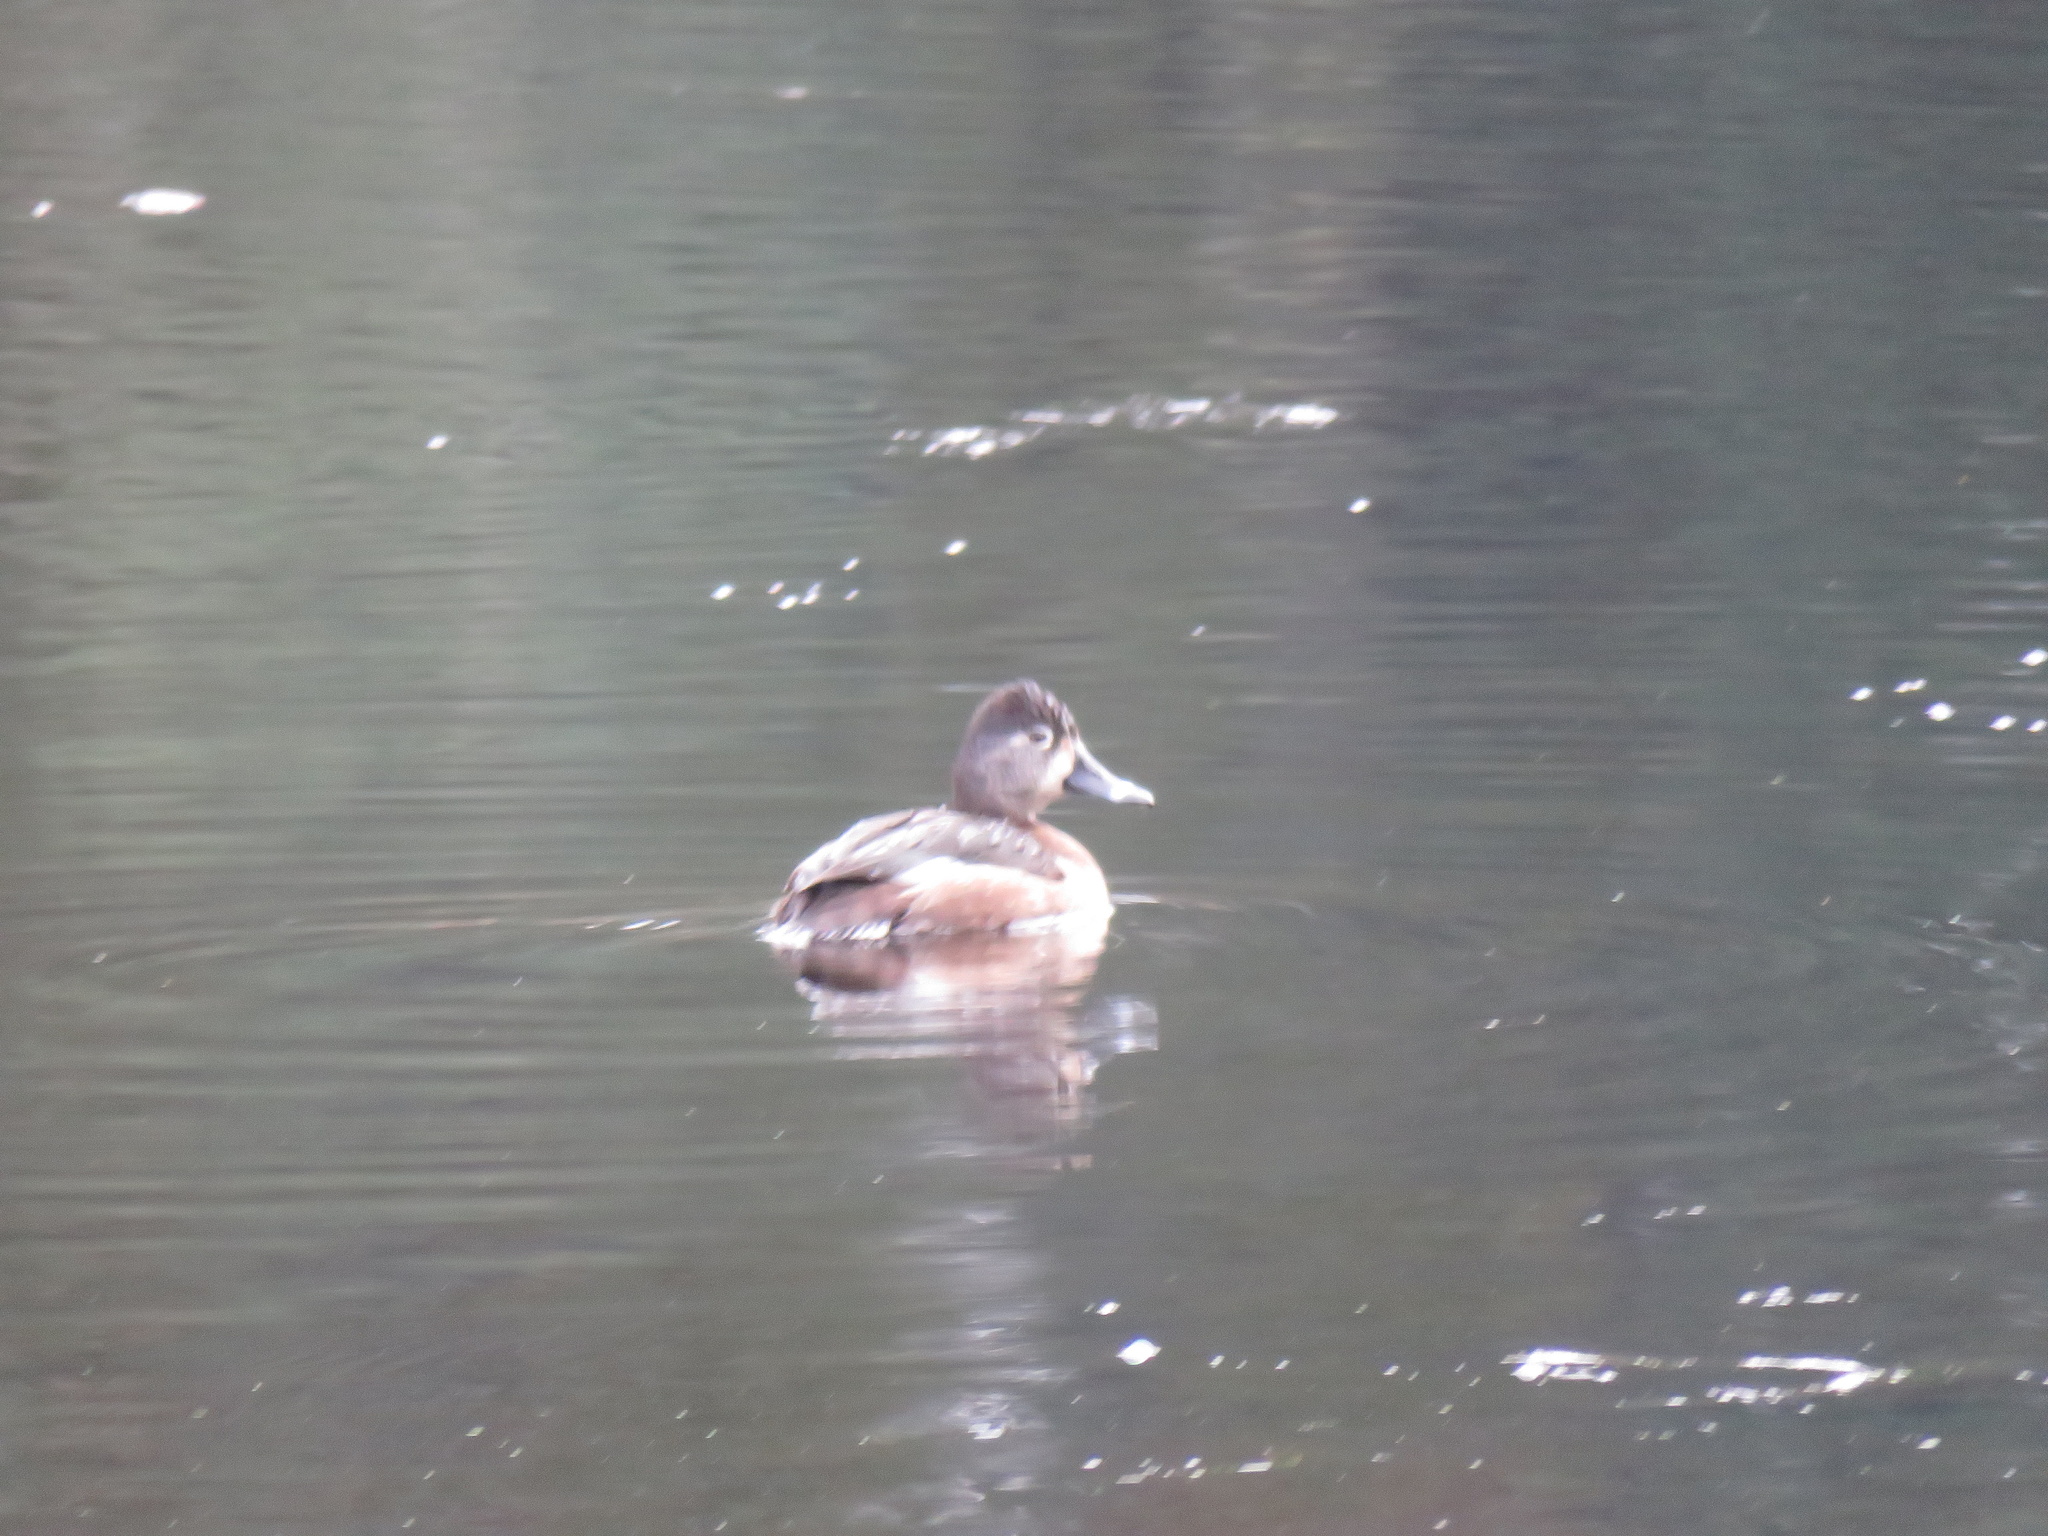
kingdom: Animalia
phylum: Chordata
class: Aves
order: Anseriformes
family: Anatidae
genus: Aythya
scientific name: Aythya collaris
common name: Ring-necked duck
